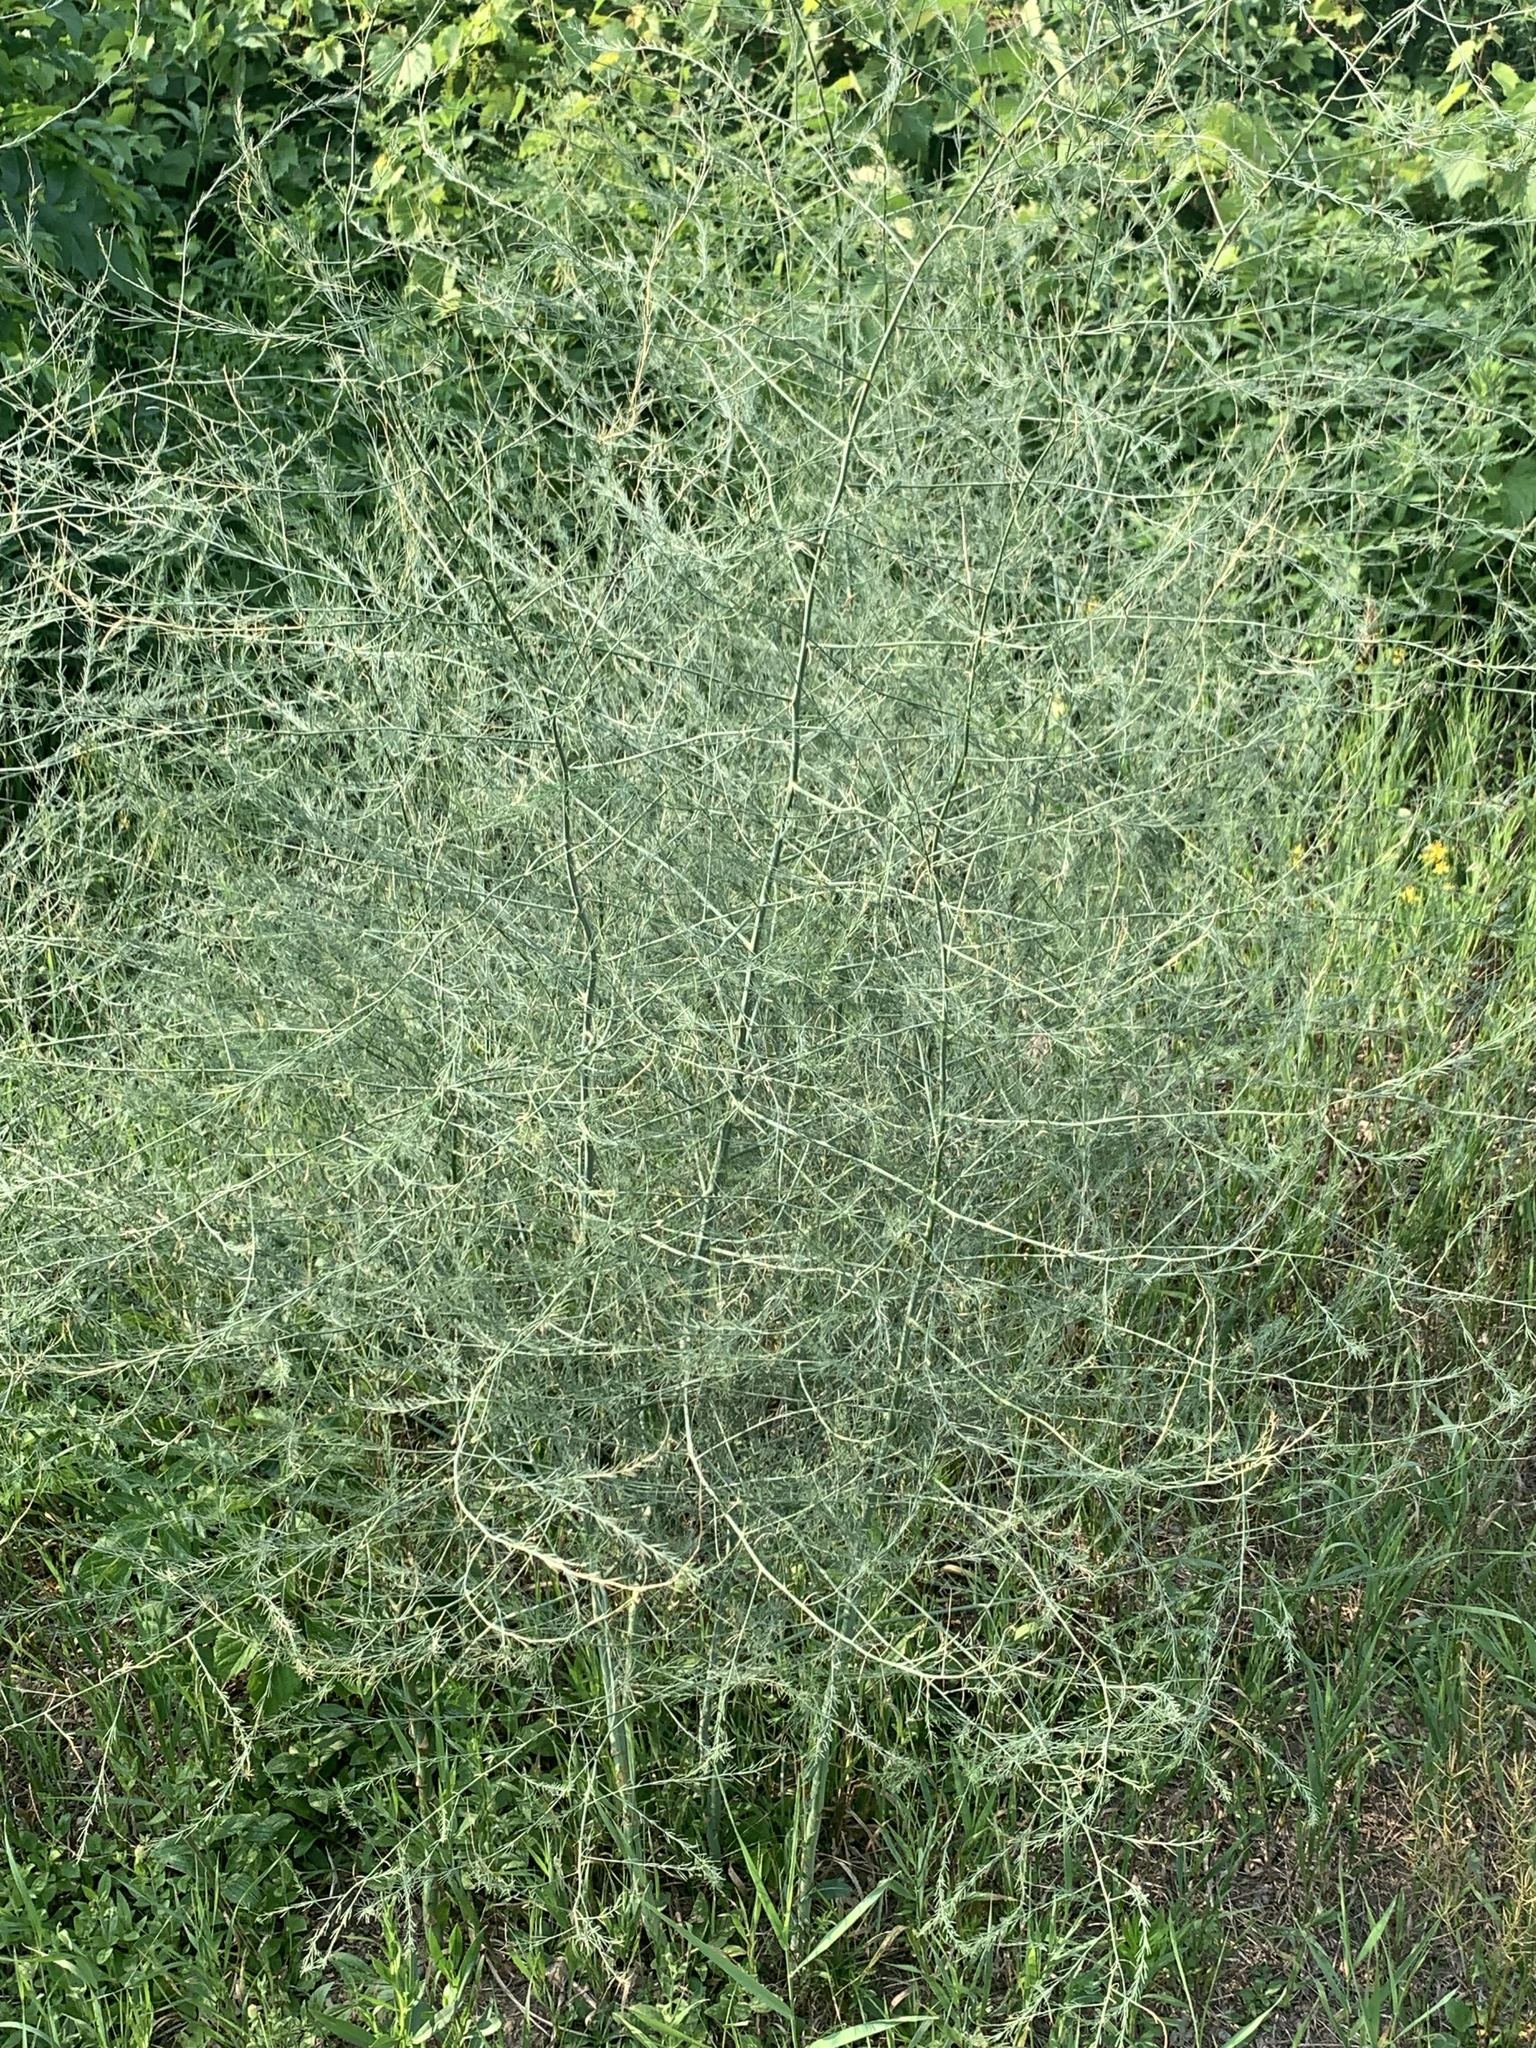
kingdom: Plantae
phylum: Tracheophyta
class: Liliopsida
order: Asparagales
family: Asparagaceae
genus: Asparagus
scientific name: Asparagus officinalis
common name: Garden asparagus
